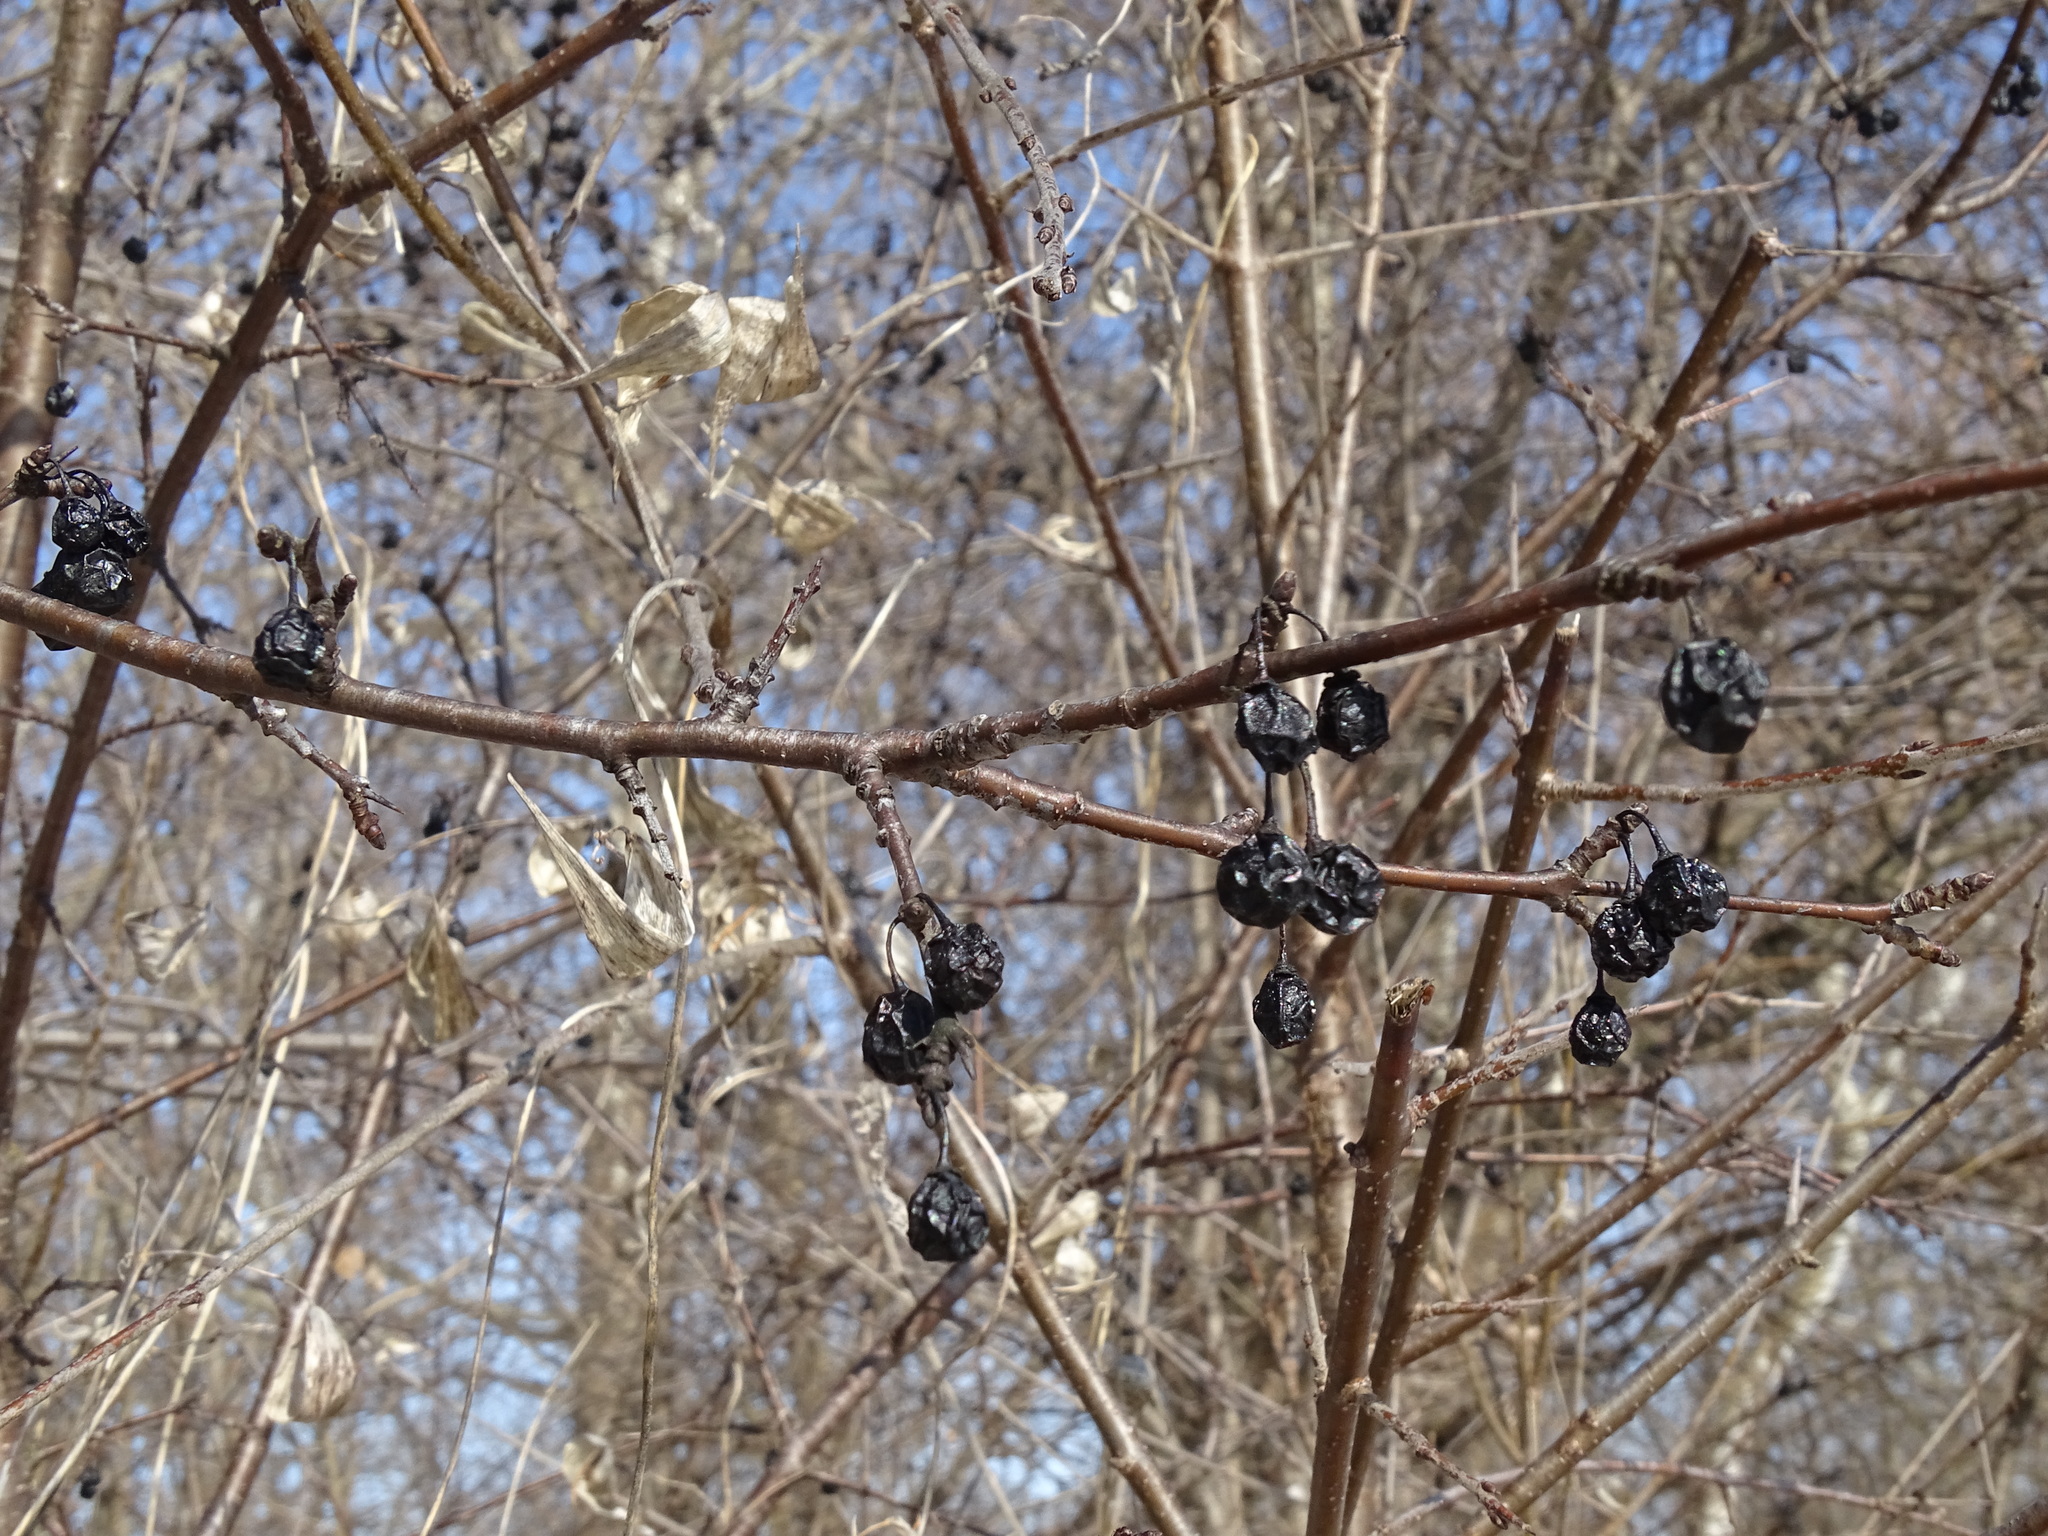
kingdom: Plantae
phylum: Tracheophyta
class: Magnoliopsida
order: Rosales
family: Rhamnaceae
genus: Rhamnus
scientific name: Rhamnus cathartica
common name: Common buckthorn
